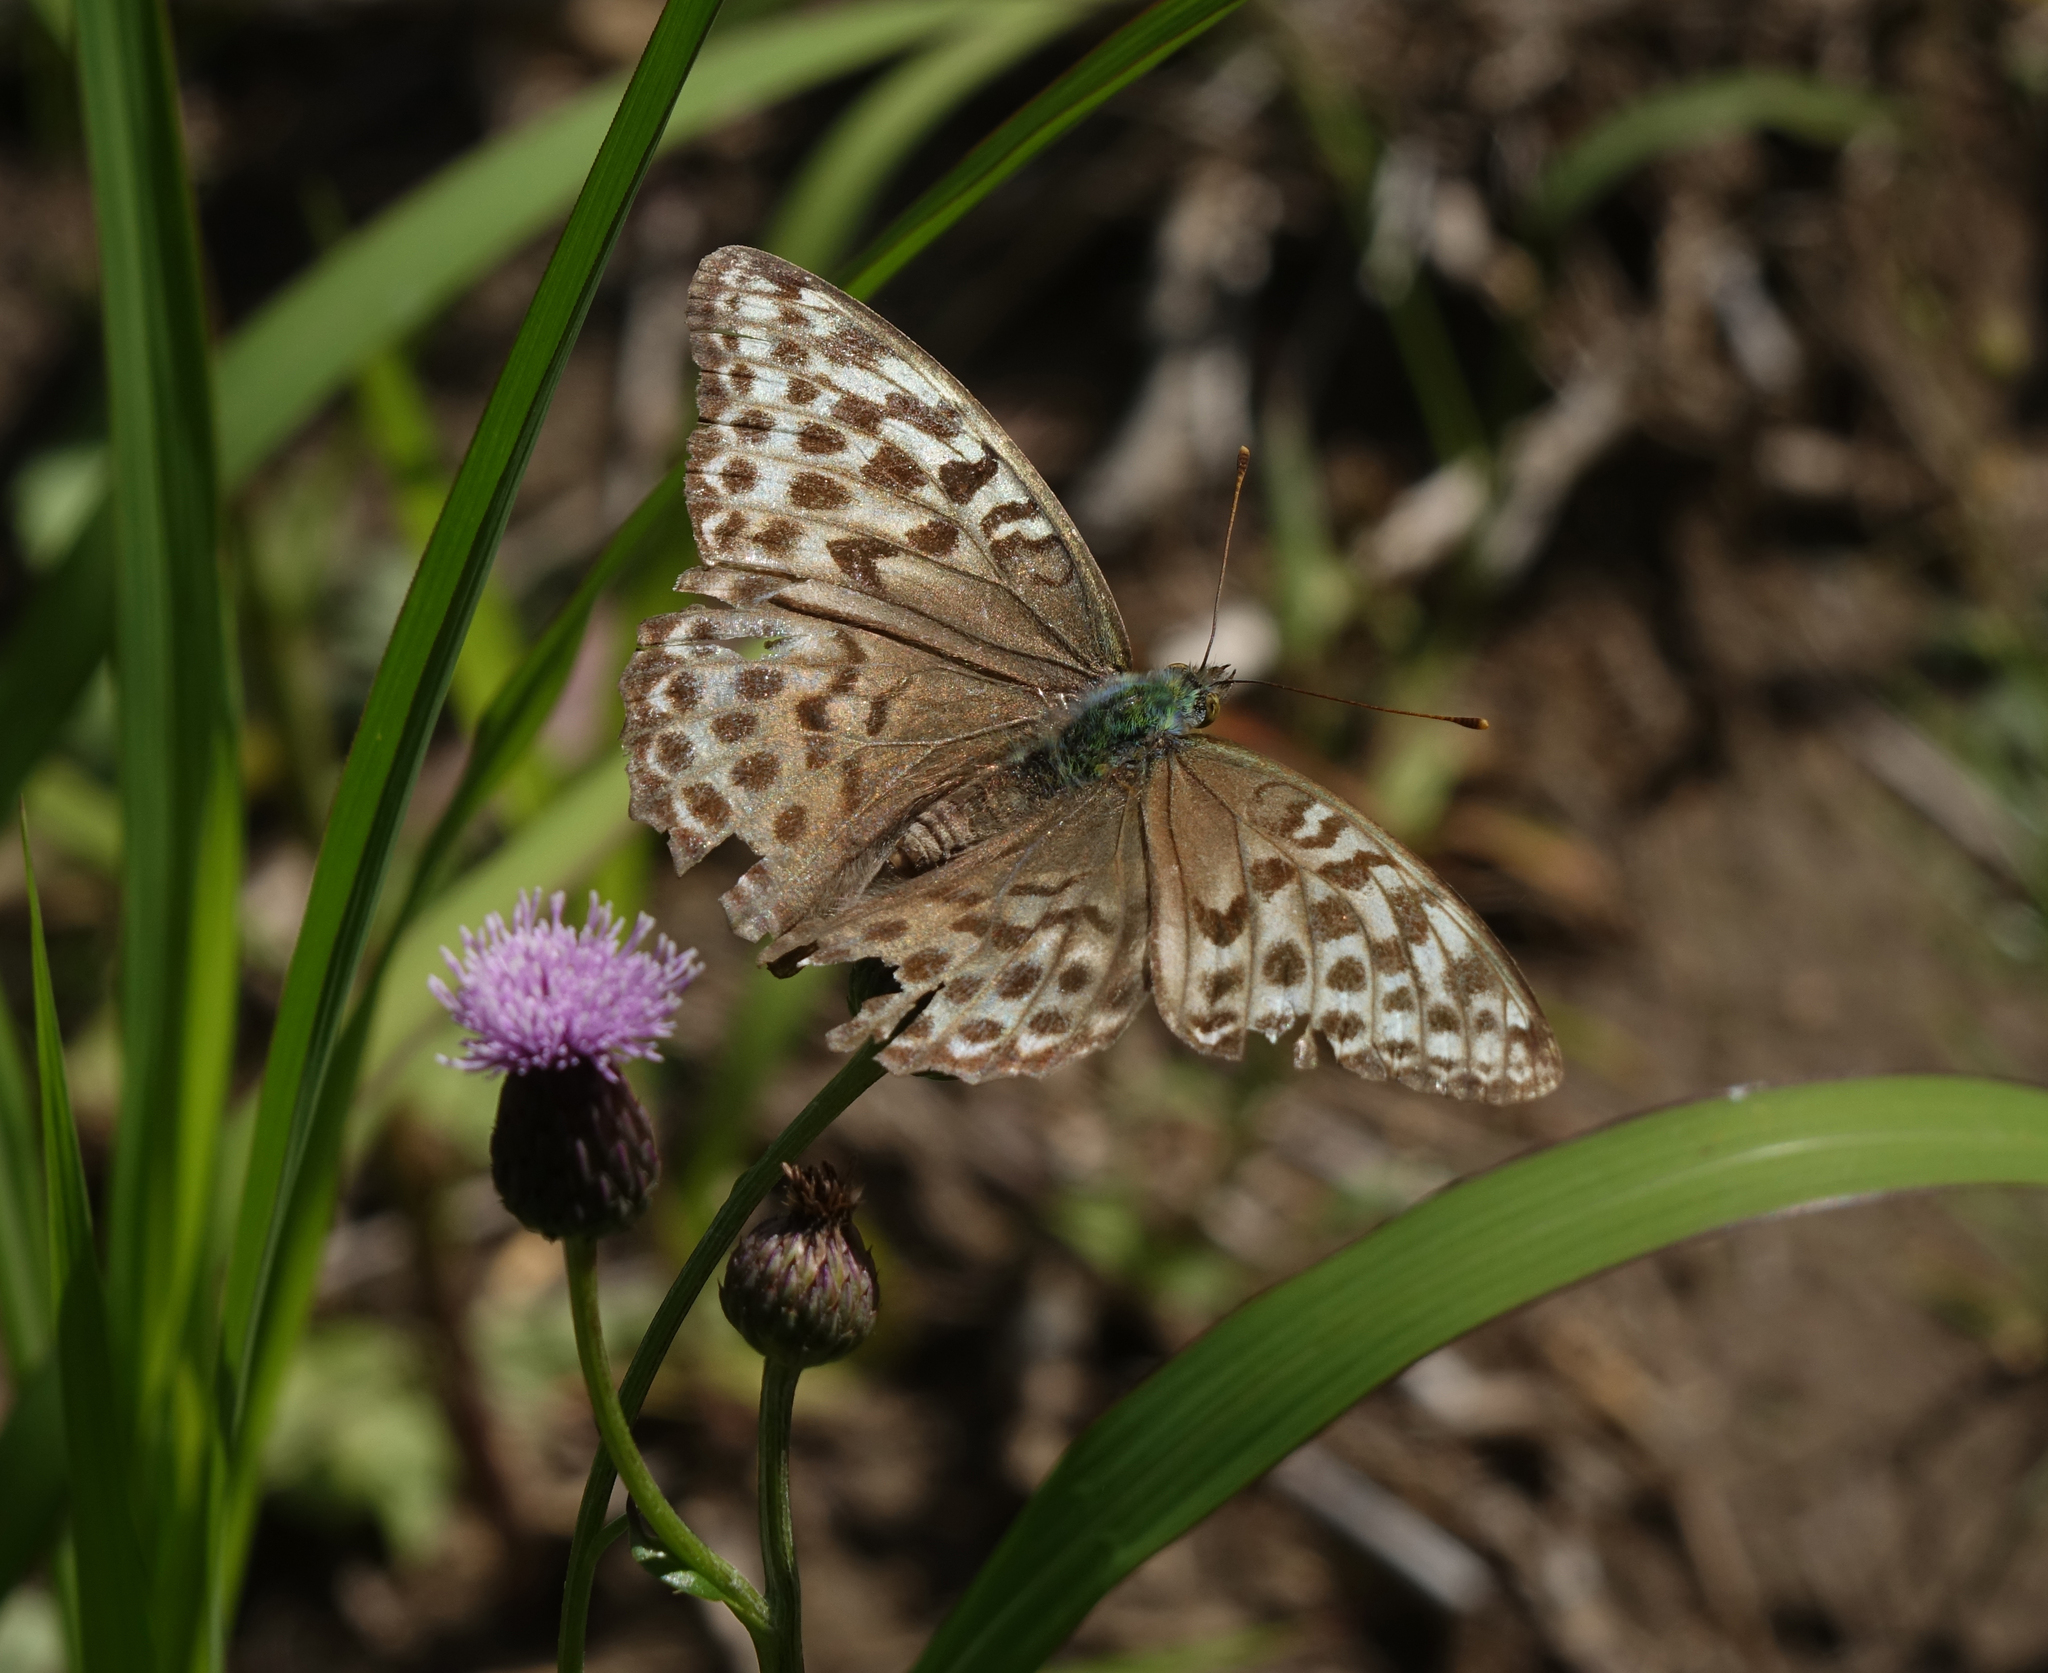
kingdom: Animalia
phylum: Arthropoda
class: Insecta
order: Lepidoptera
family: Nymphalidae
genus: Argynnis
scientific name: Argynnis paphia
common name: Silver-washed fritillary
